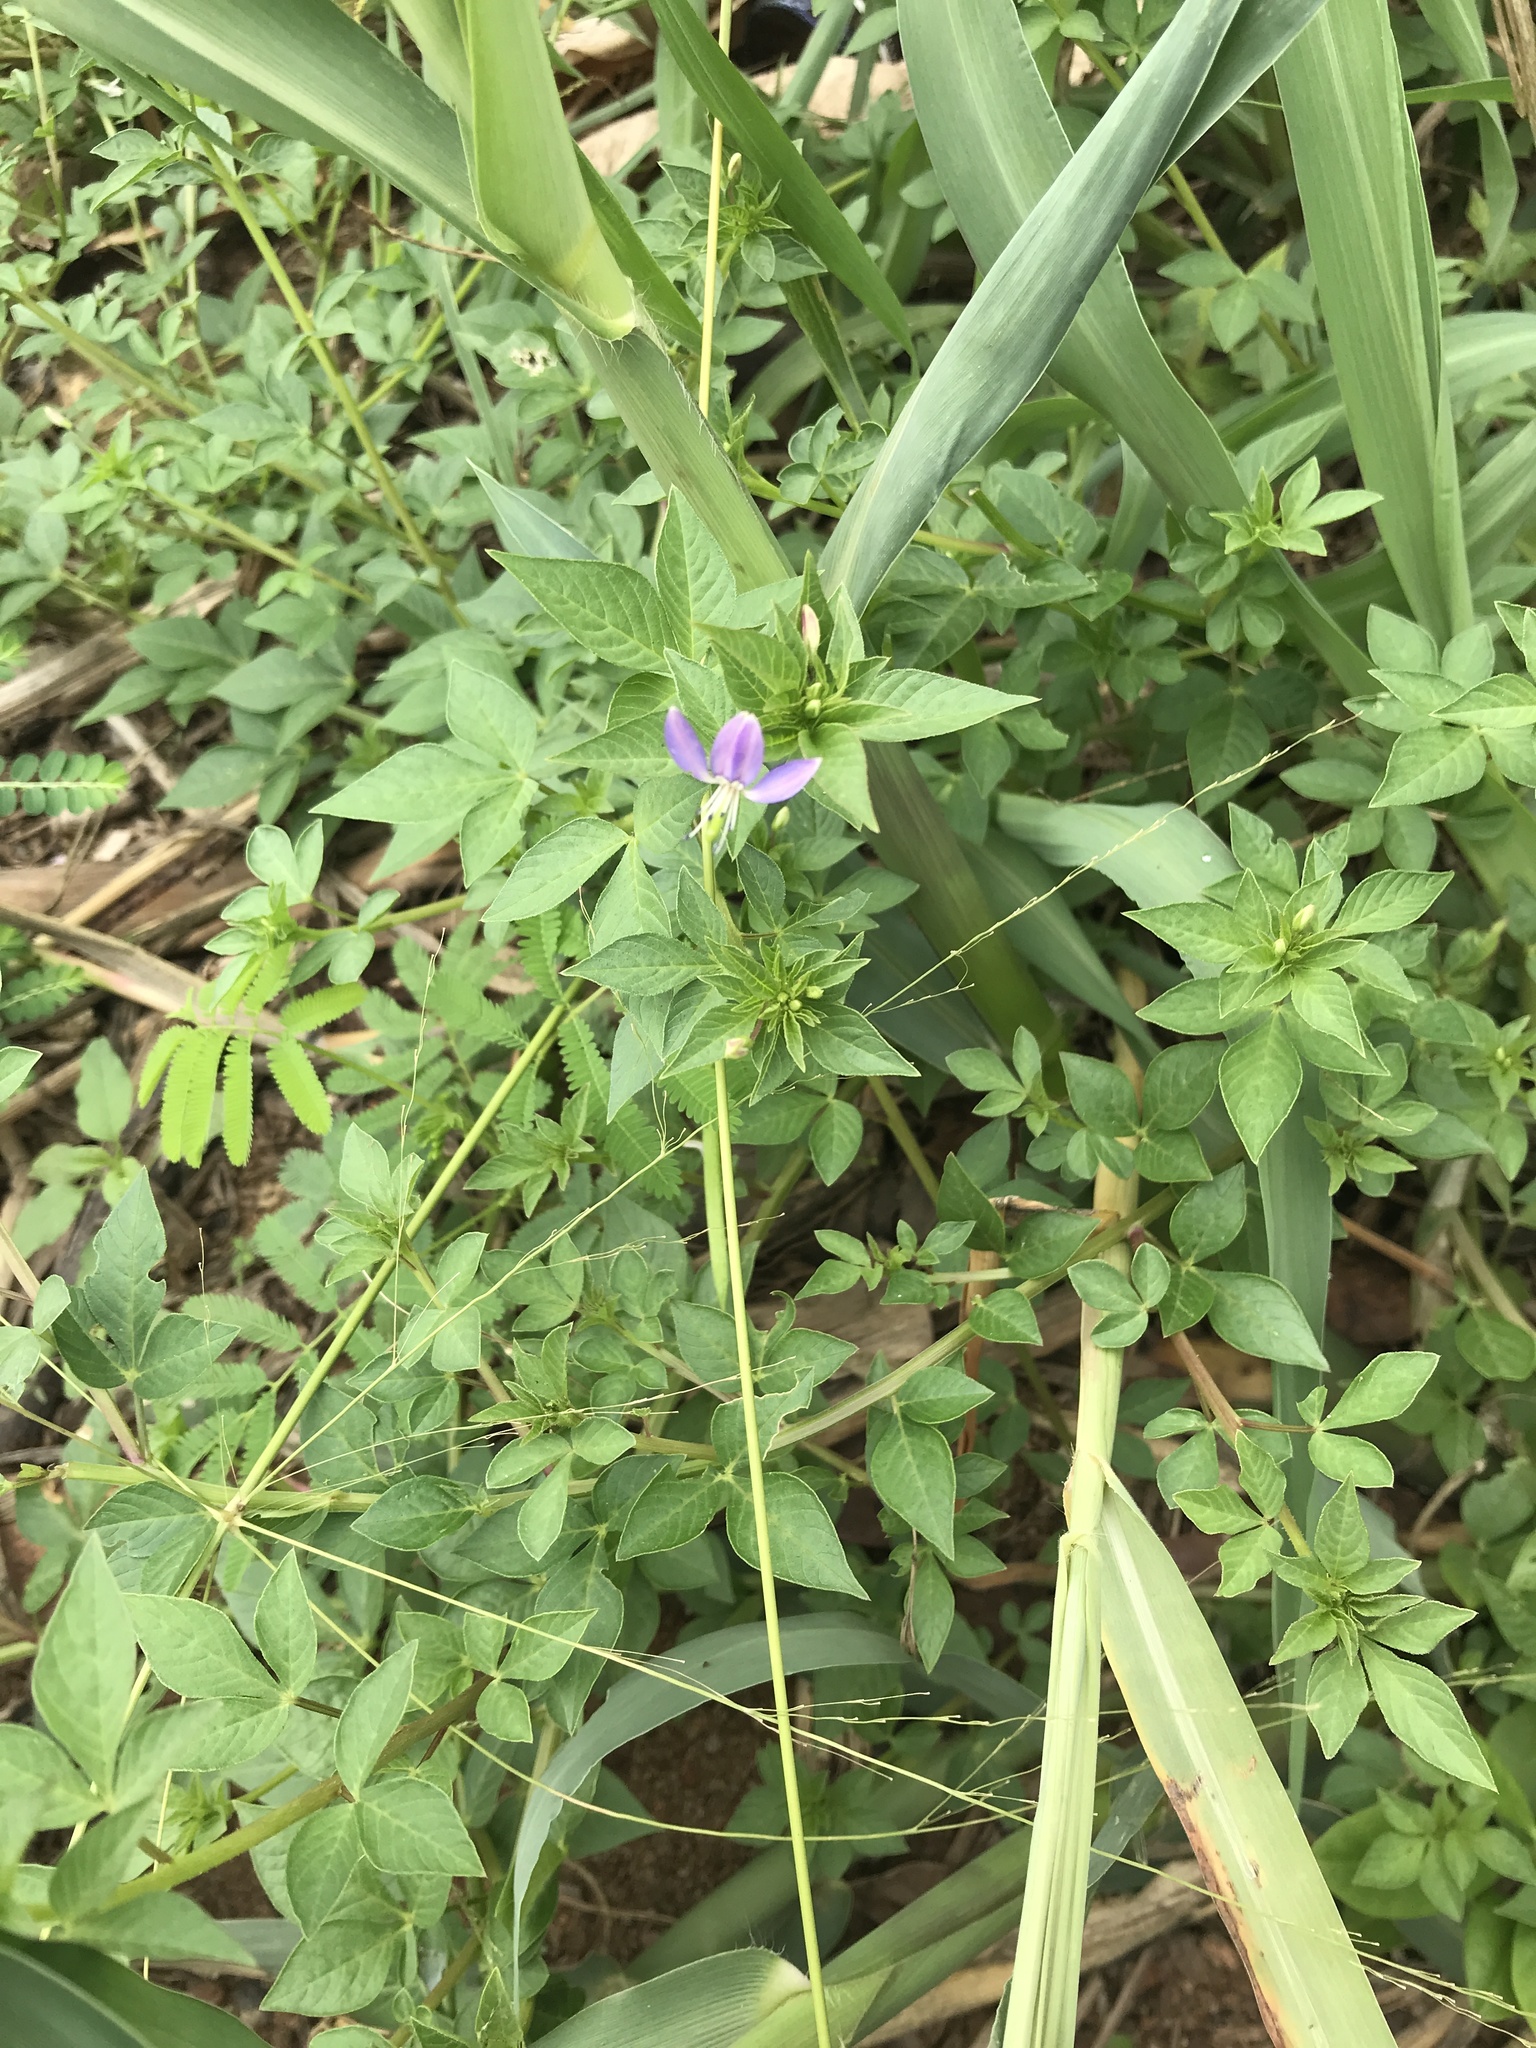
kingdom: Plantae
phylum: Tracheophyta
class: Magnoliopsida
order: Brassicales
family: Cleomaceae
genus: Sieruela
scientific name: Sieruela rutidosperma
